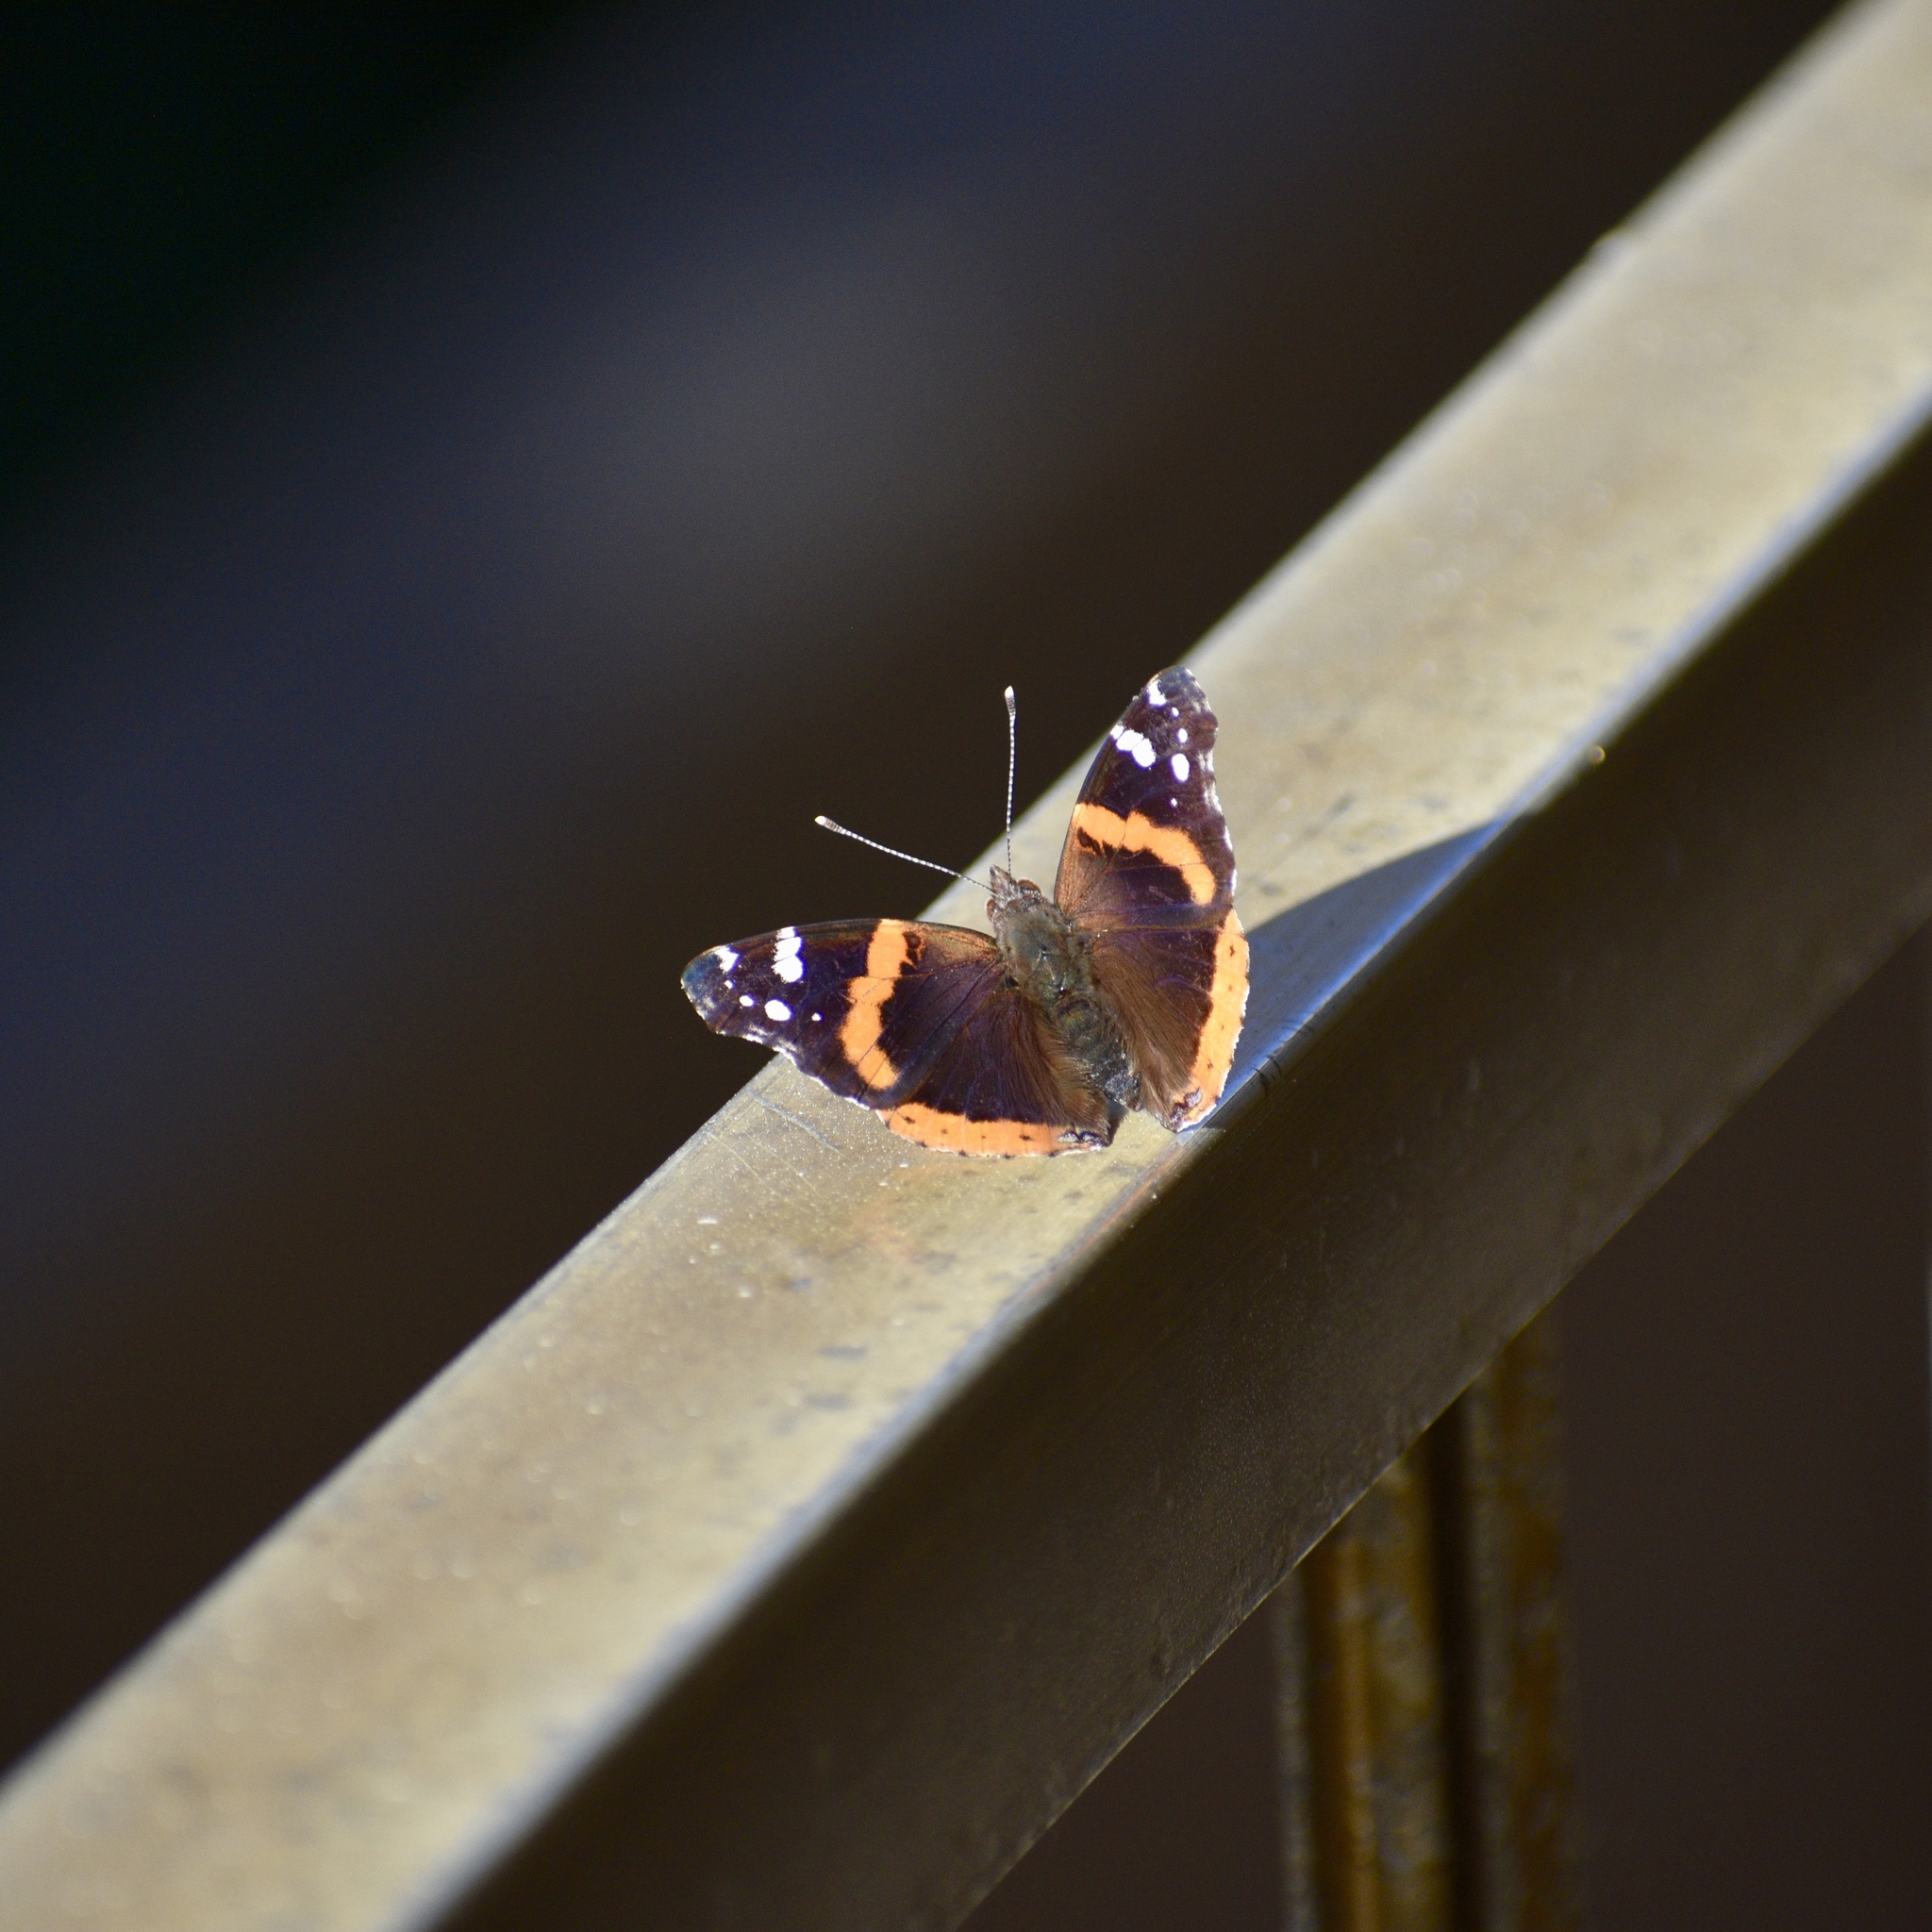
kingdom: Animalia
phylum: Arthropoda
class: Insecta
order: Lepidoptera
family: Nymphalidae
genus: Vanessa
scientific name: Vanessa atalanta
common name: Red admiral
